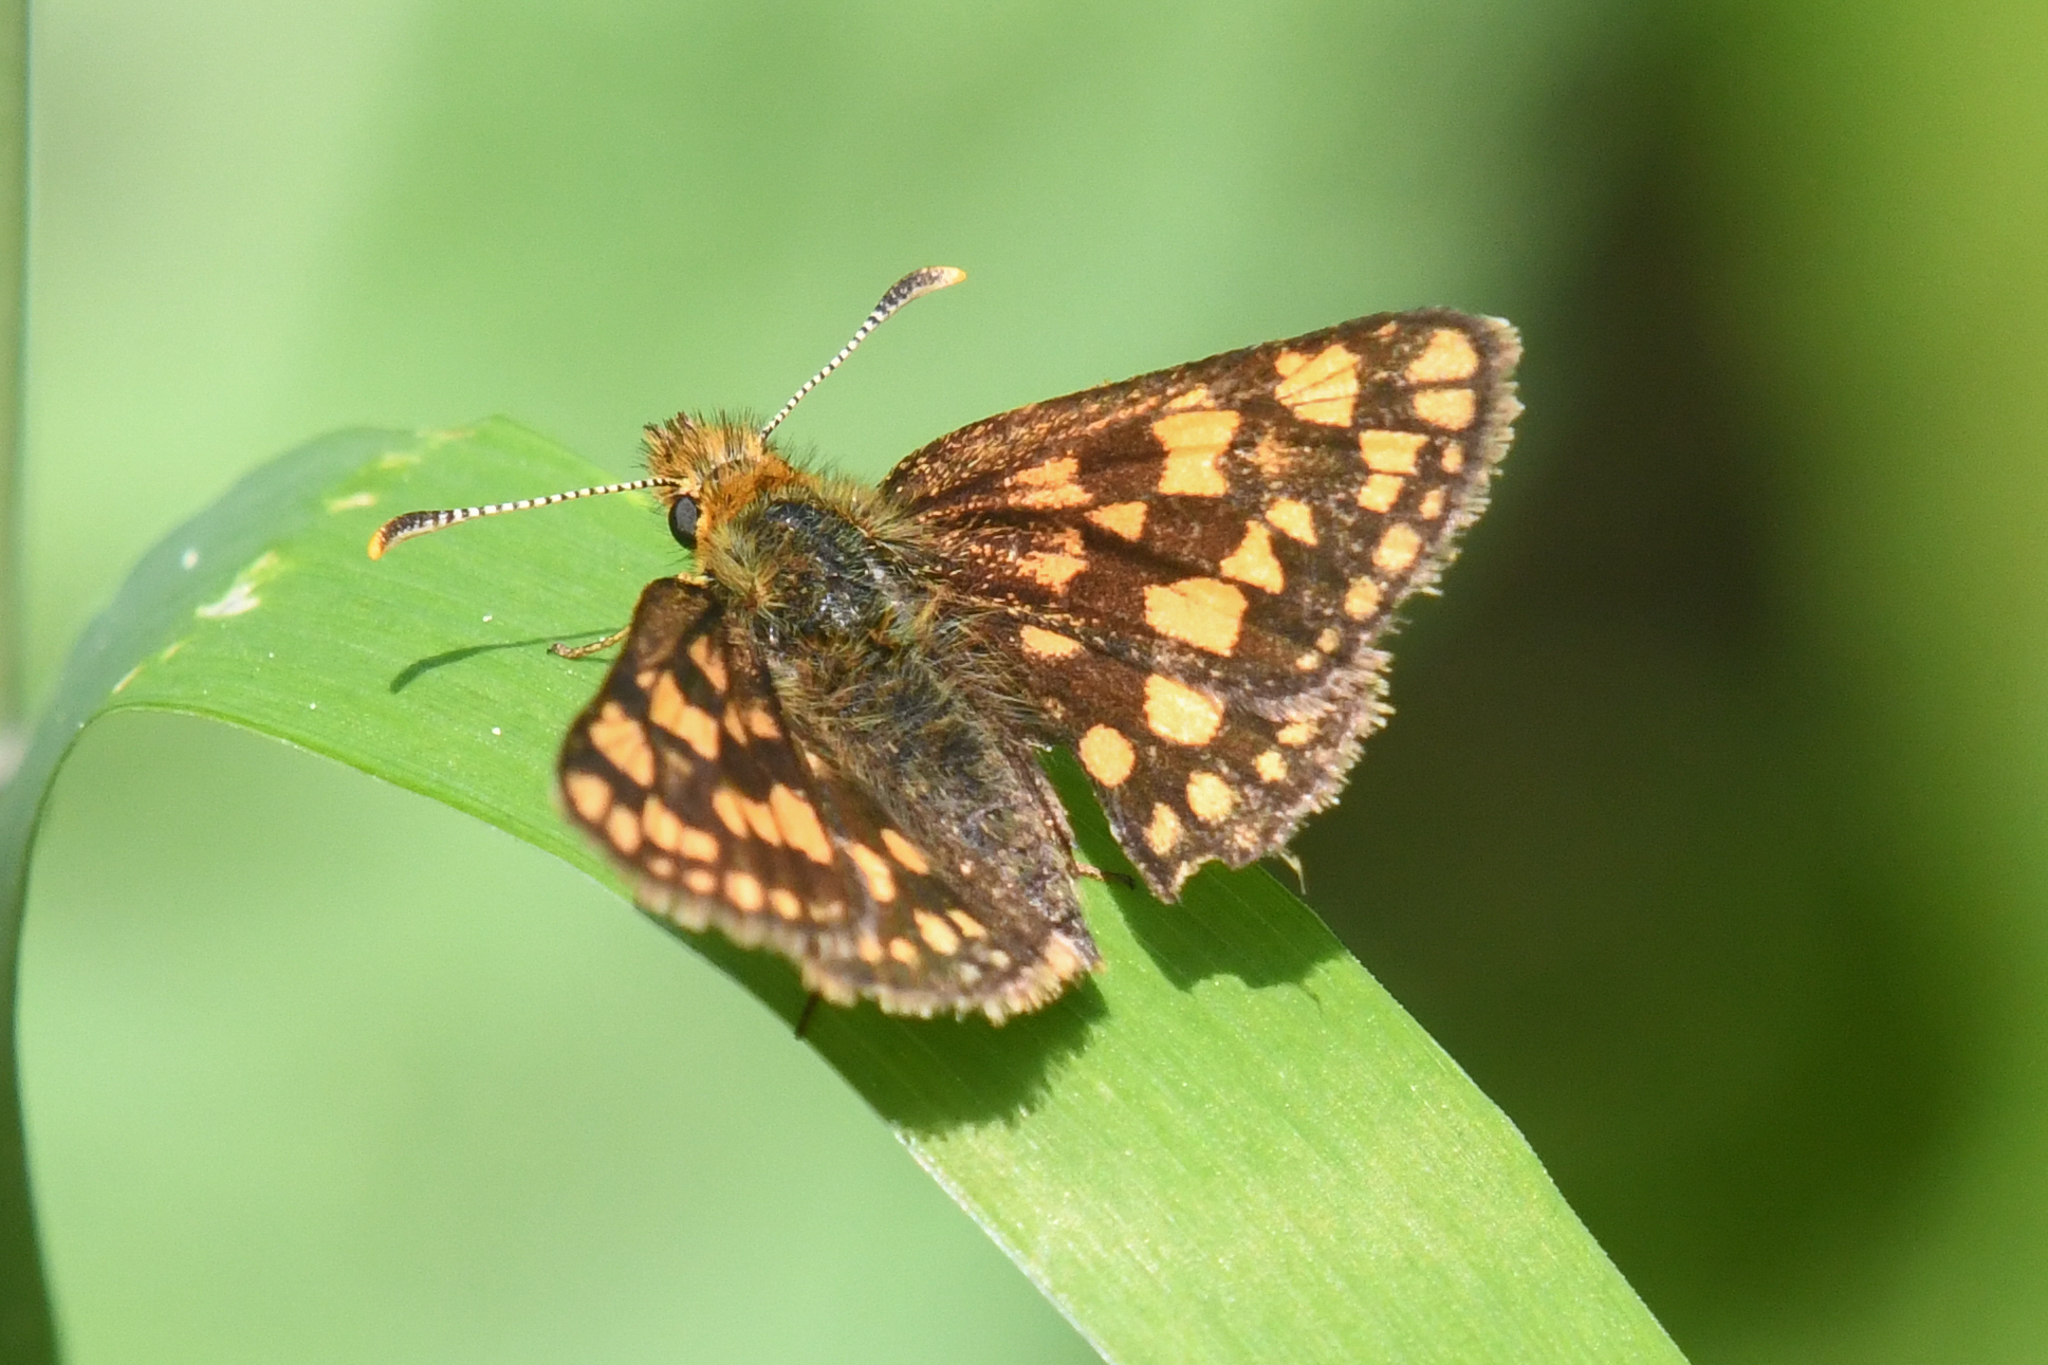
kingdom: Animalia
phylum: Arthropoda
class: Insecta
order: Lepidoptera
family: Hesperiidae
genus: Carterocephalus
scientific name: Carterocephalus skada
